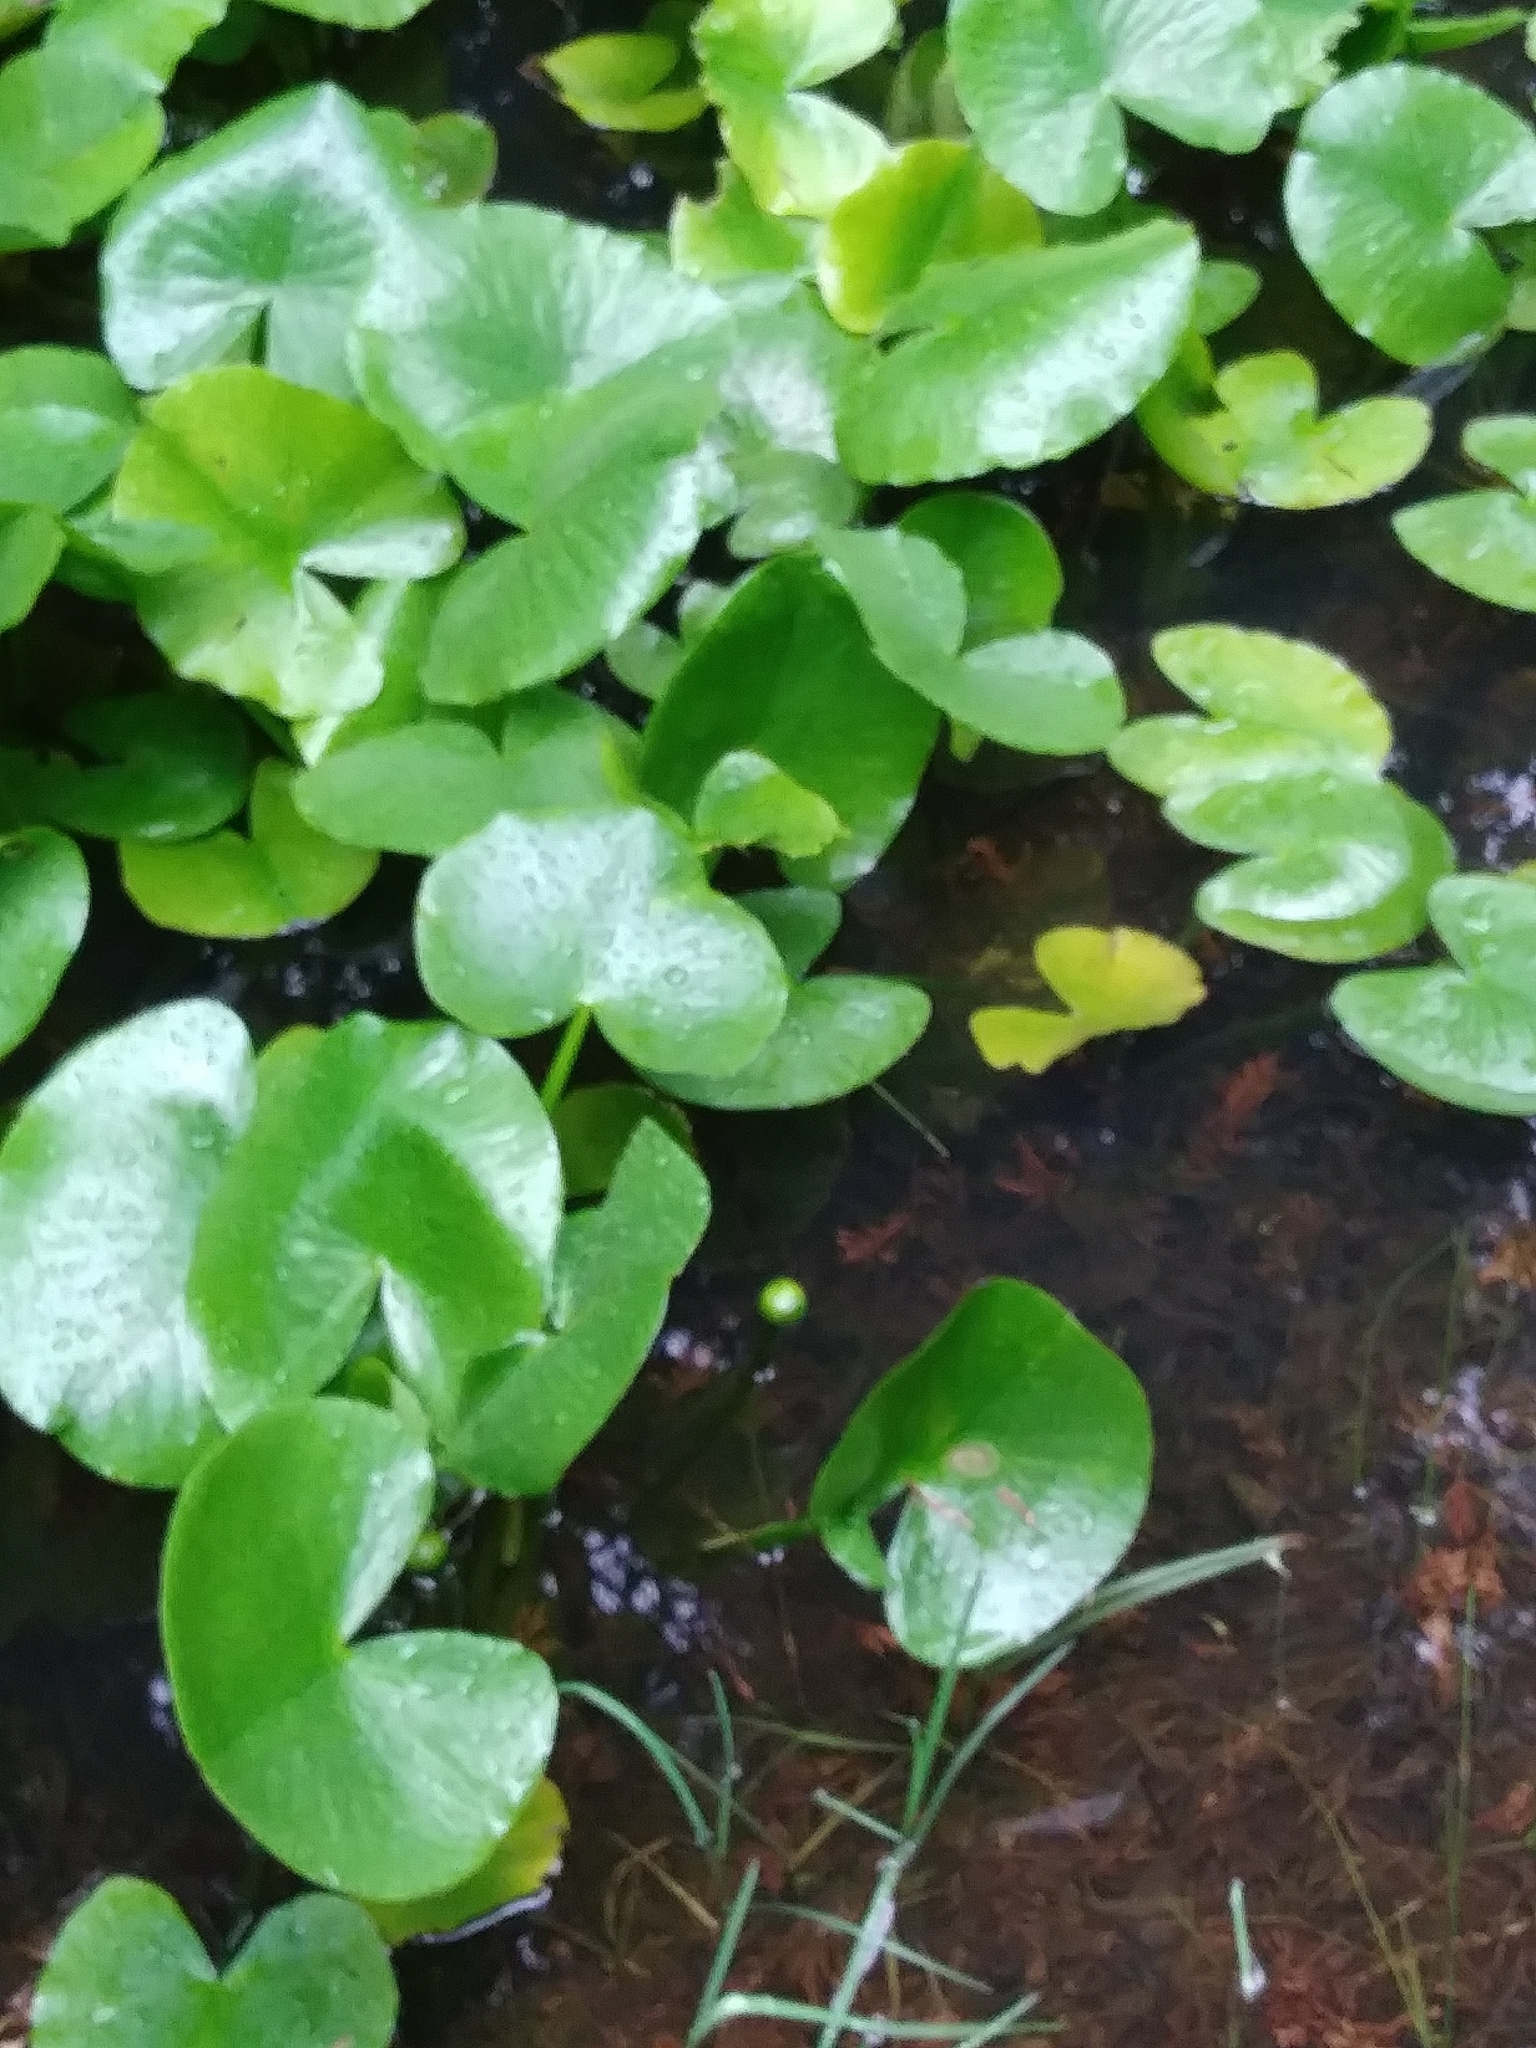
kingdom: Plantae
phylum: Tracheophyta
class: Magnoliopsida
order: Nymphaeales
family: Nymphaeaceae
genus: Nuphar
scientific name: Nuphar advena
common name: Spatter-dock
